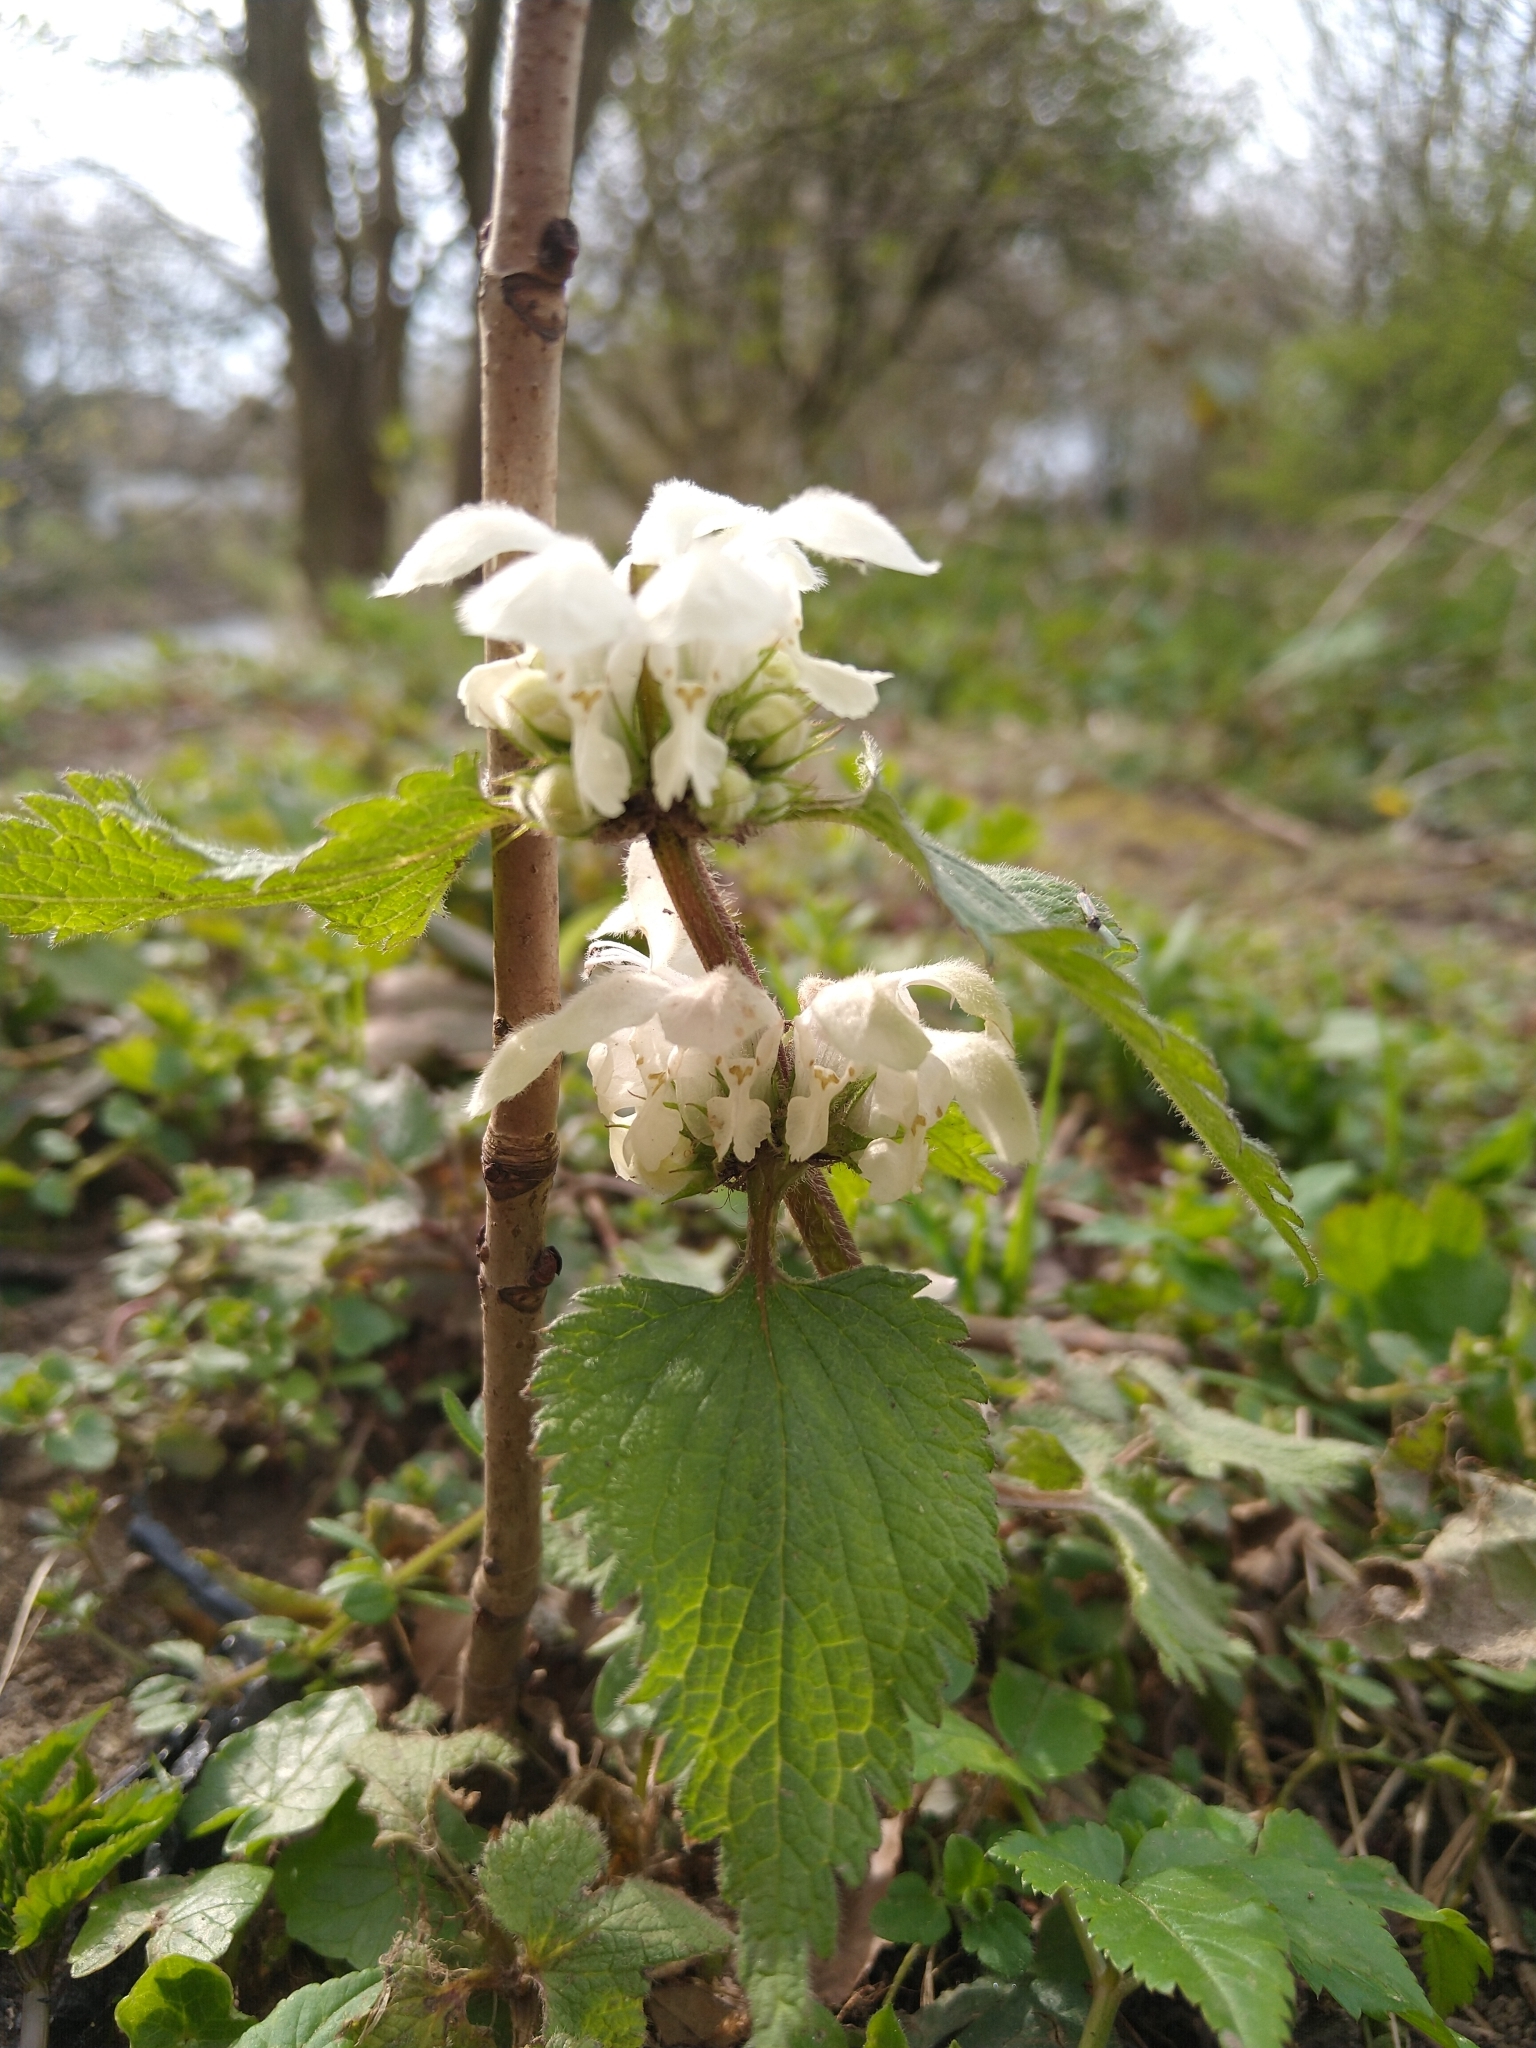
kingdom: Plantae
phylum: Tracheophyta
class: Magnoliopsida
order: Lamiales
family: Lamiaceae
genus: Lamium
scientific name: Lamium album
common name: White dead-nettle
